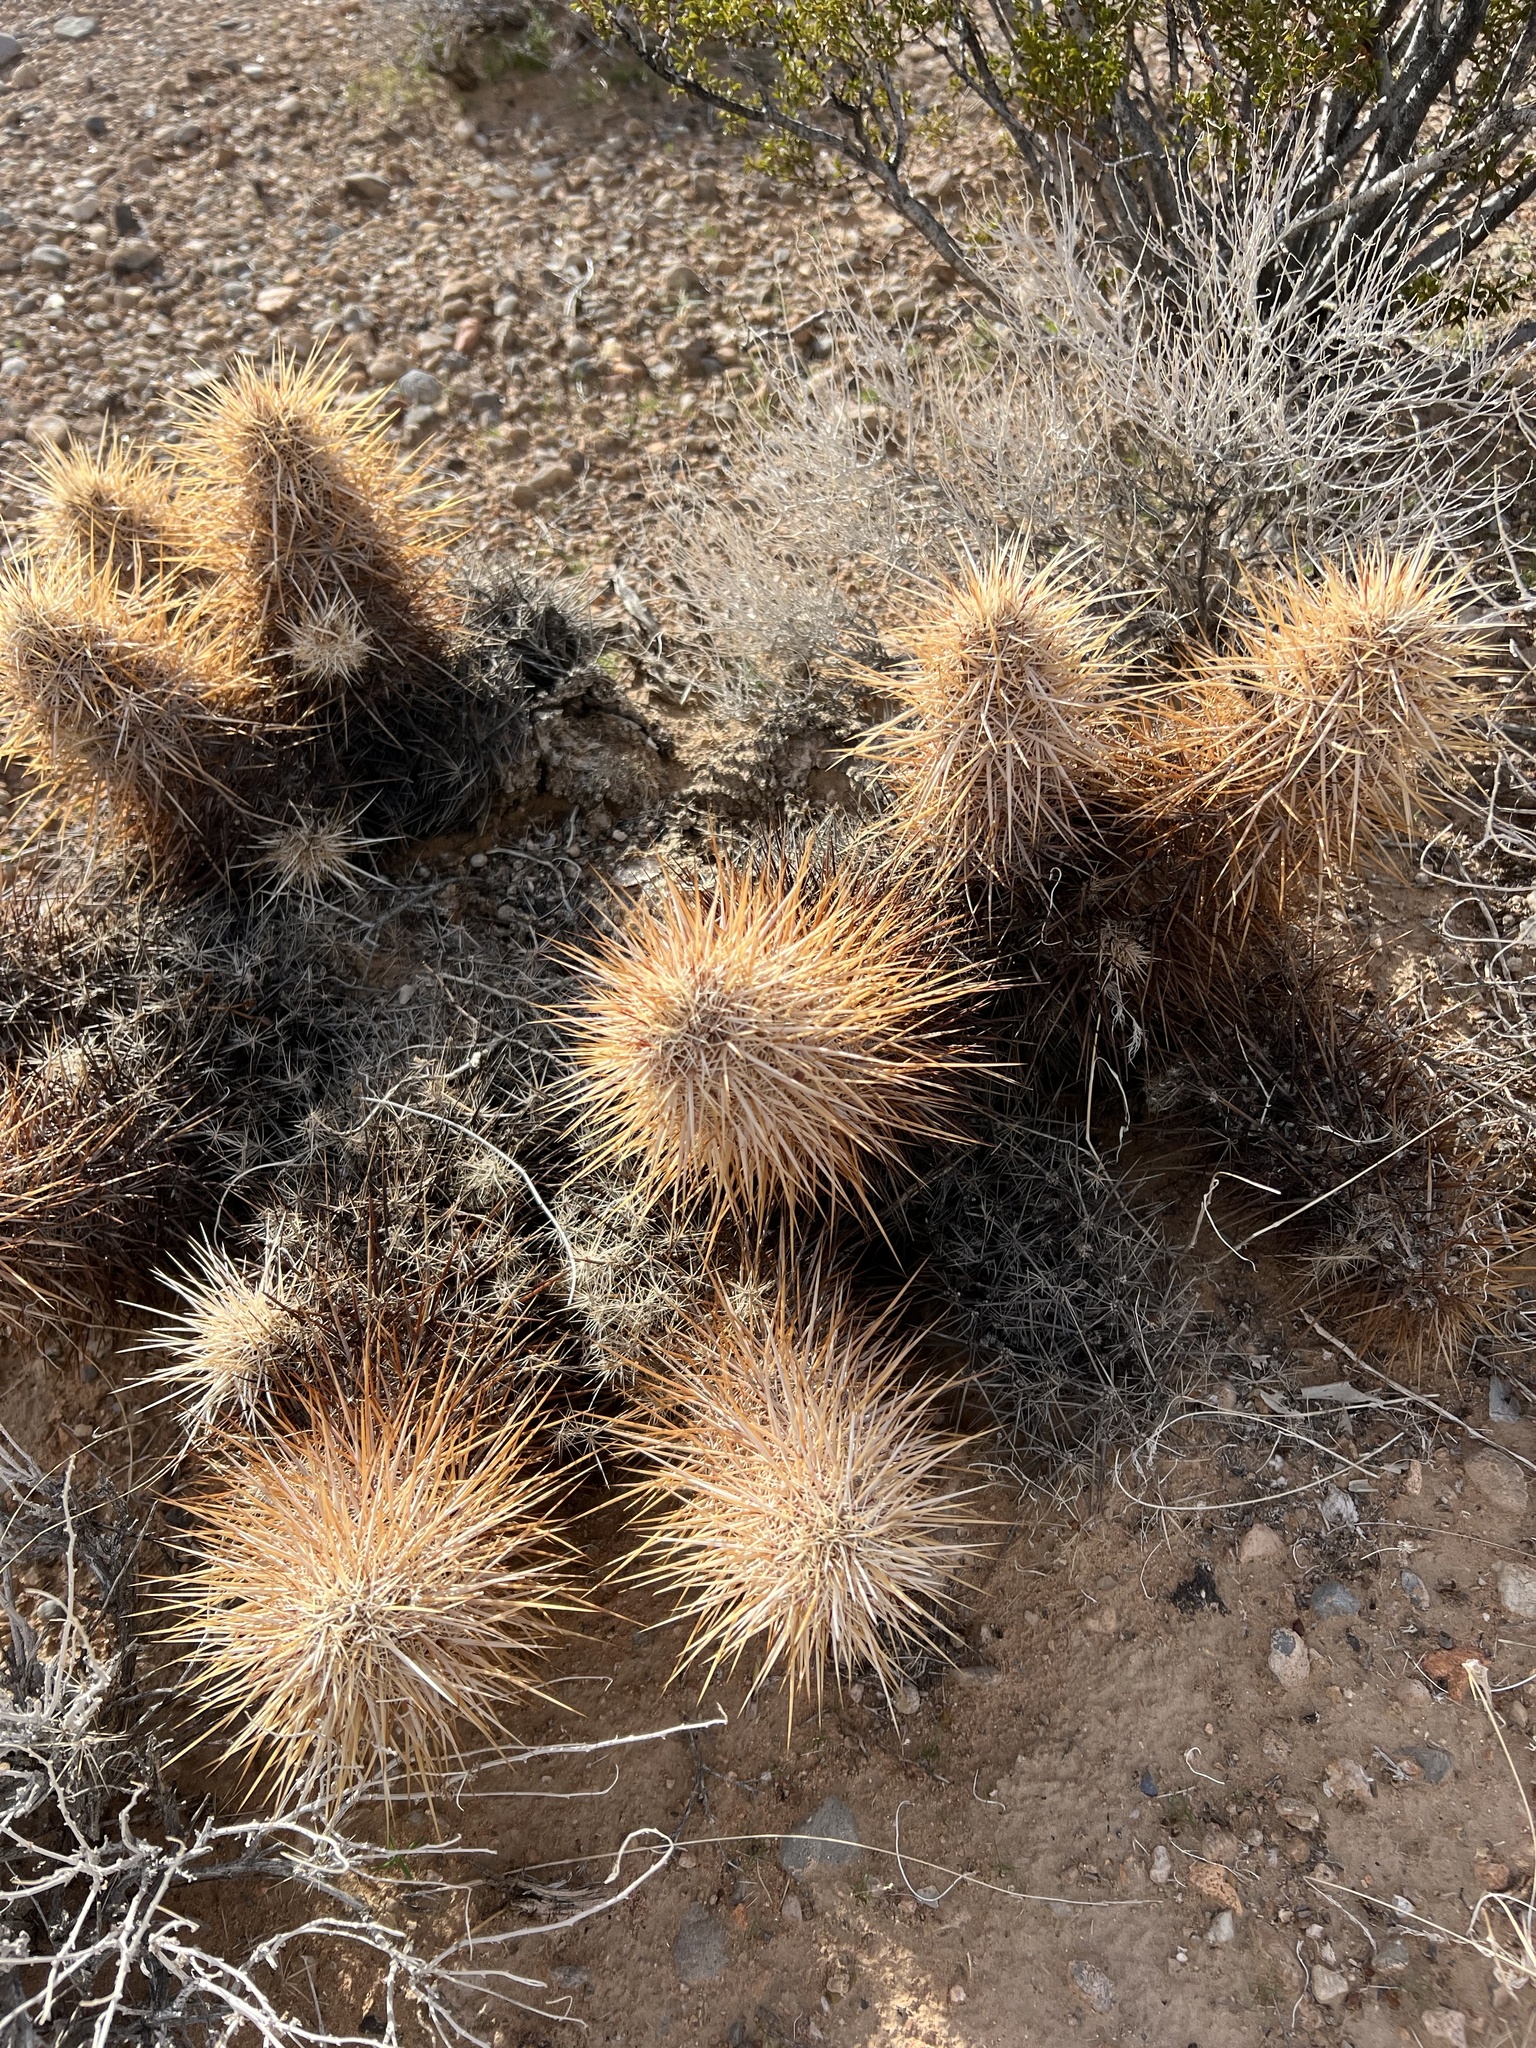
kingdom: Plantae
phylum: Tracheophyta
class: Magnoliopsida
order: Caryophyllales
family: Cactaceae
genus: Echinocereus
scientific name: Echinocereus engelmannii
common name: Engelmann's hedgehog cactus
